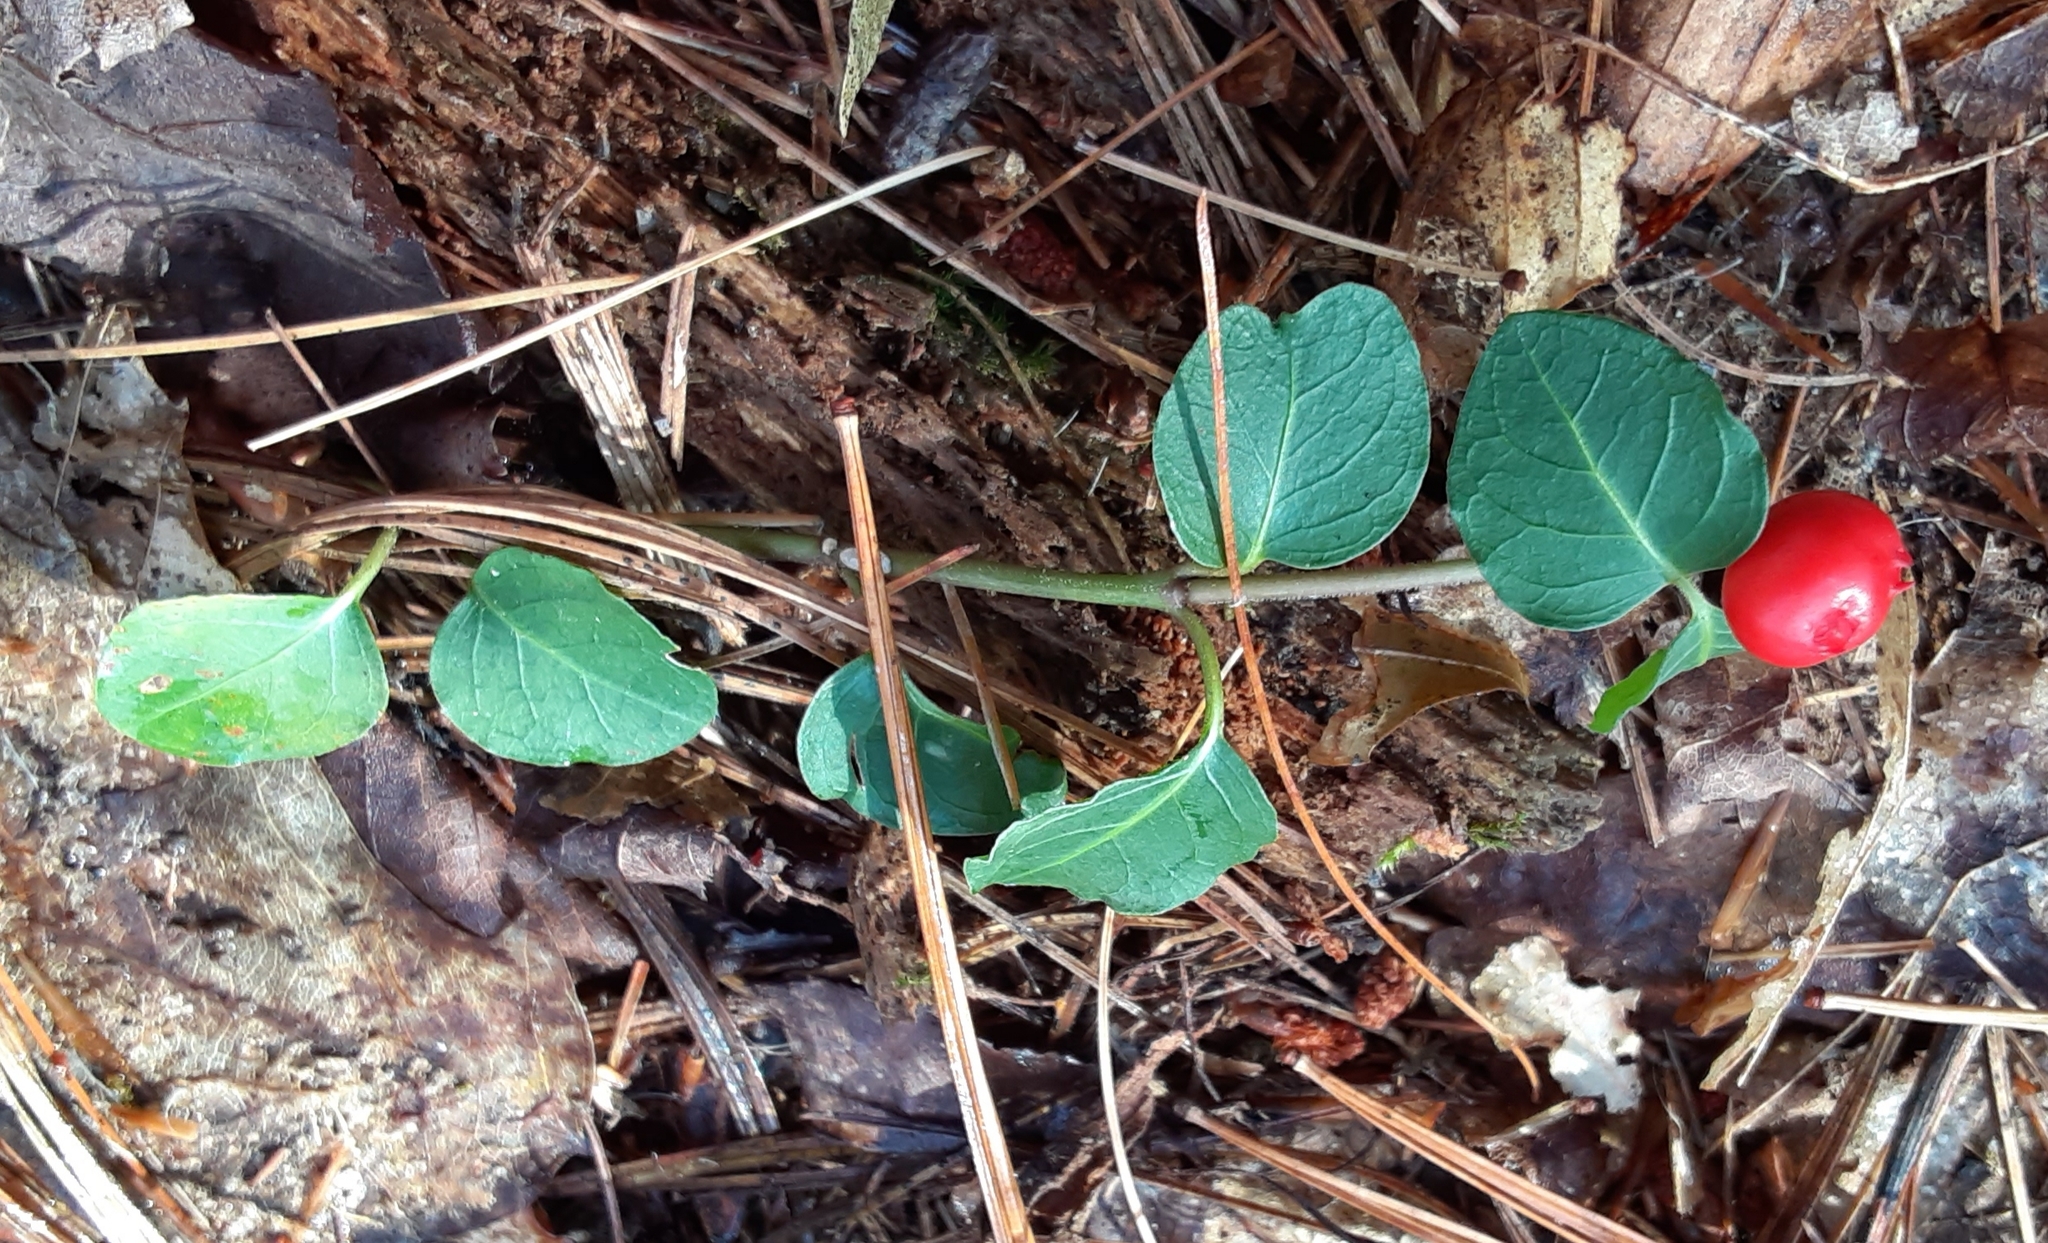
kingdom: Plantae
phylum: Tracheophyta
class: Magnoliopsida
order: Gentianales
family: Rubiaceae
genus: Mitchella
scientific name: Mitchella repens
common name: Partridge-berry
